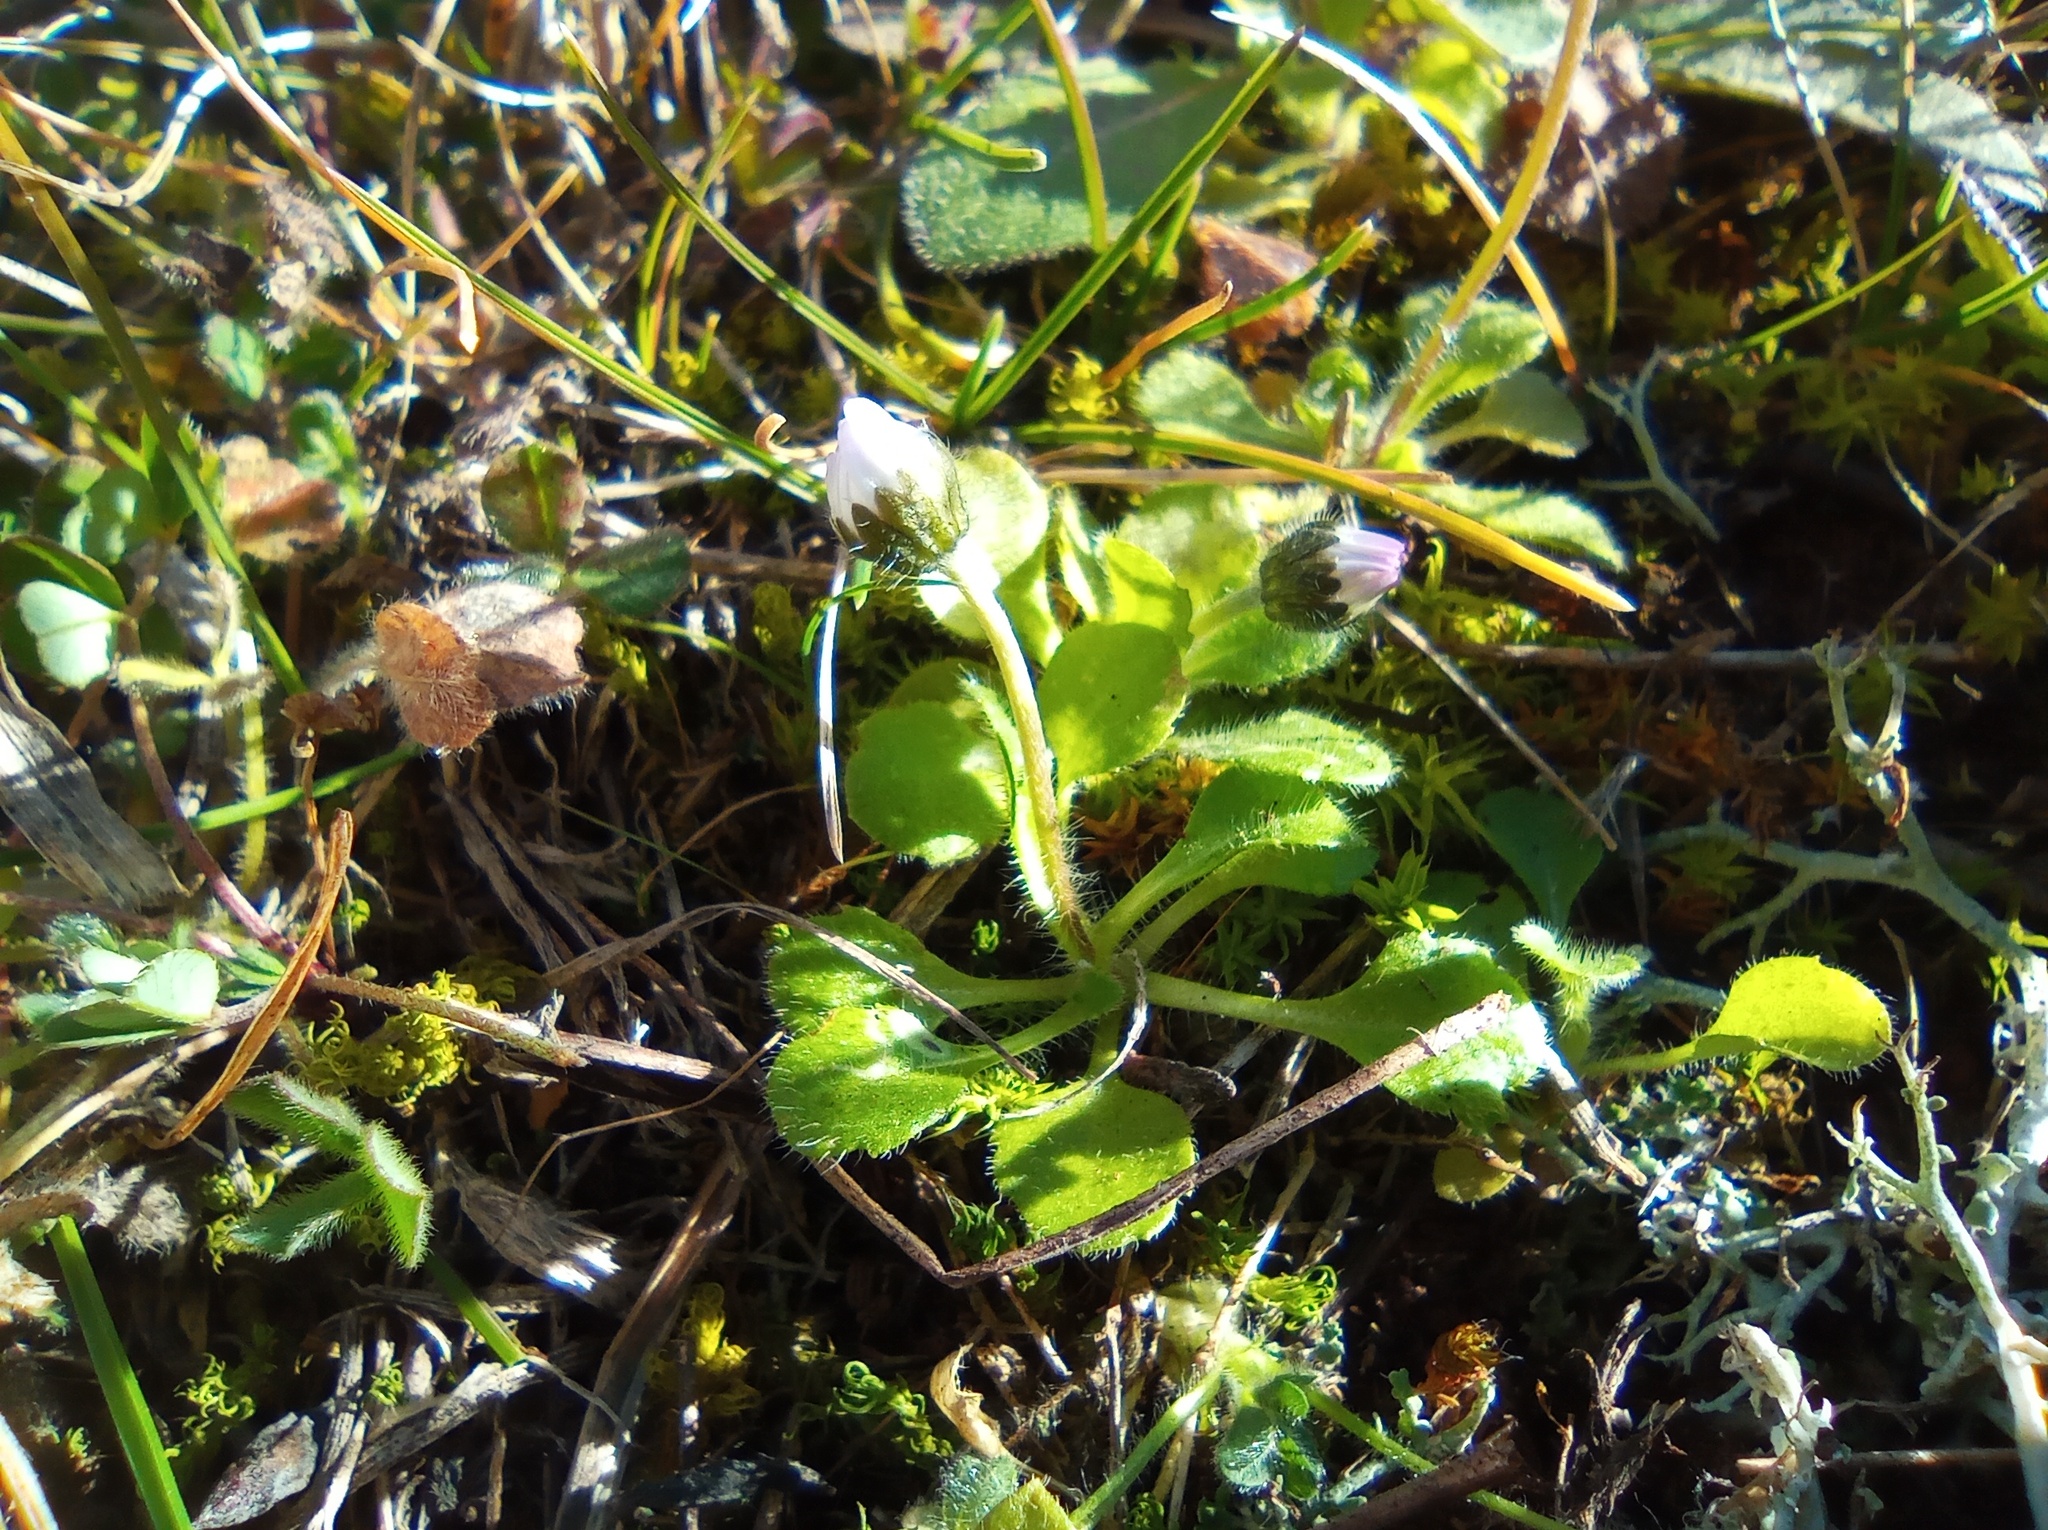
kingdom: Plantae
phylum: Tracheophyta
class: Magnoliopsida
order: Asterales
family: Asteraceae
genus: Bellis
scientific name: Bellis annua
